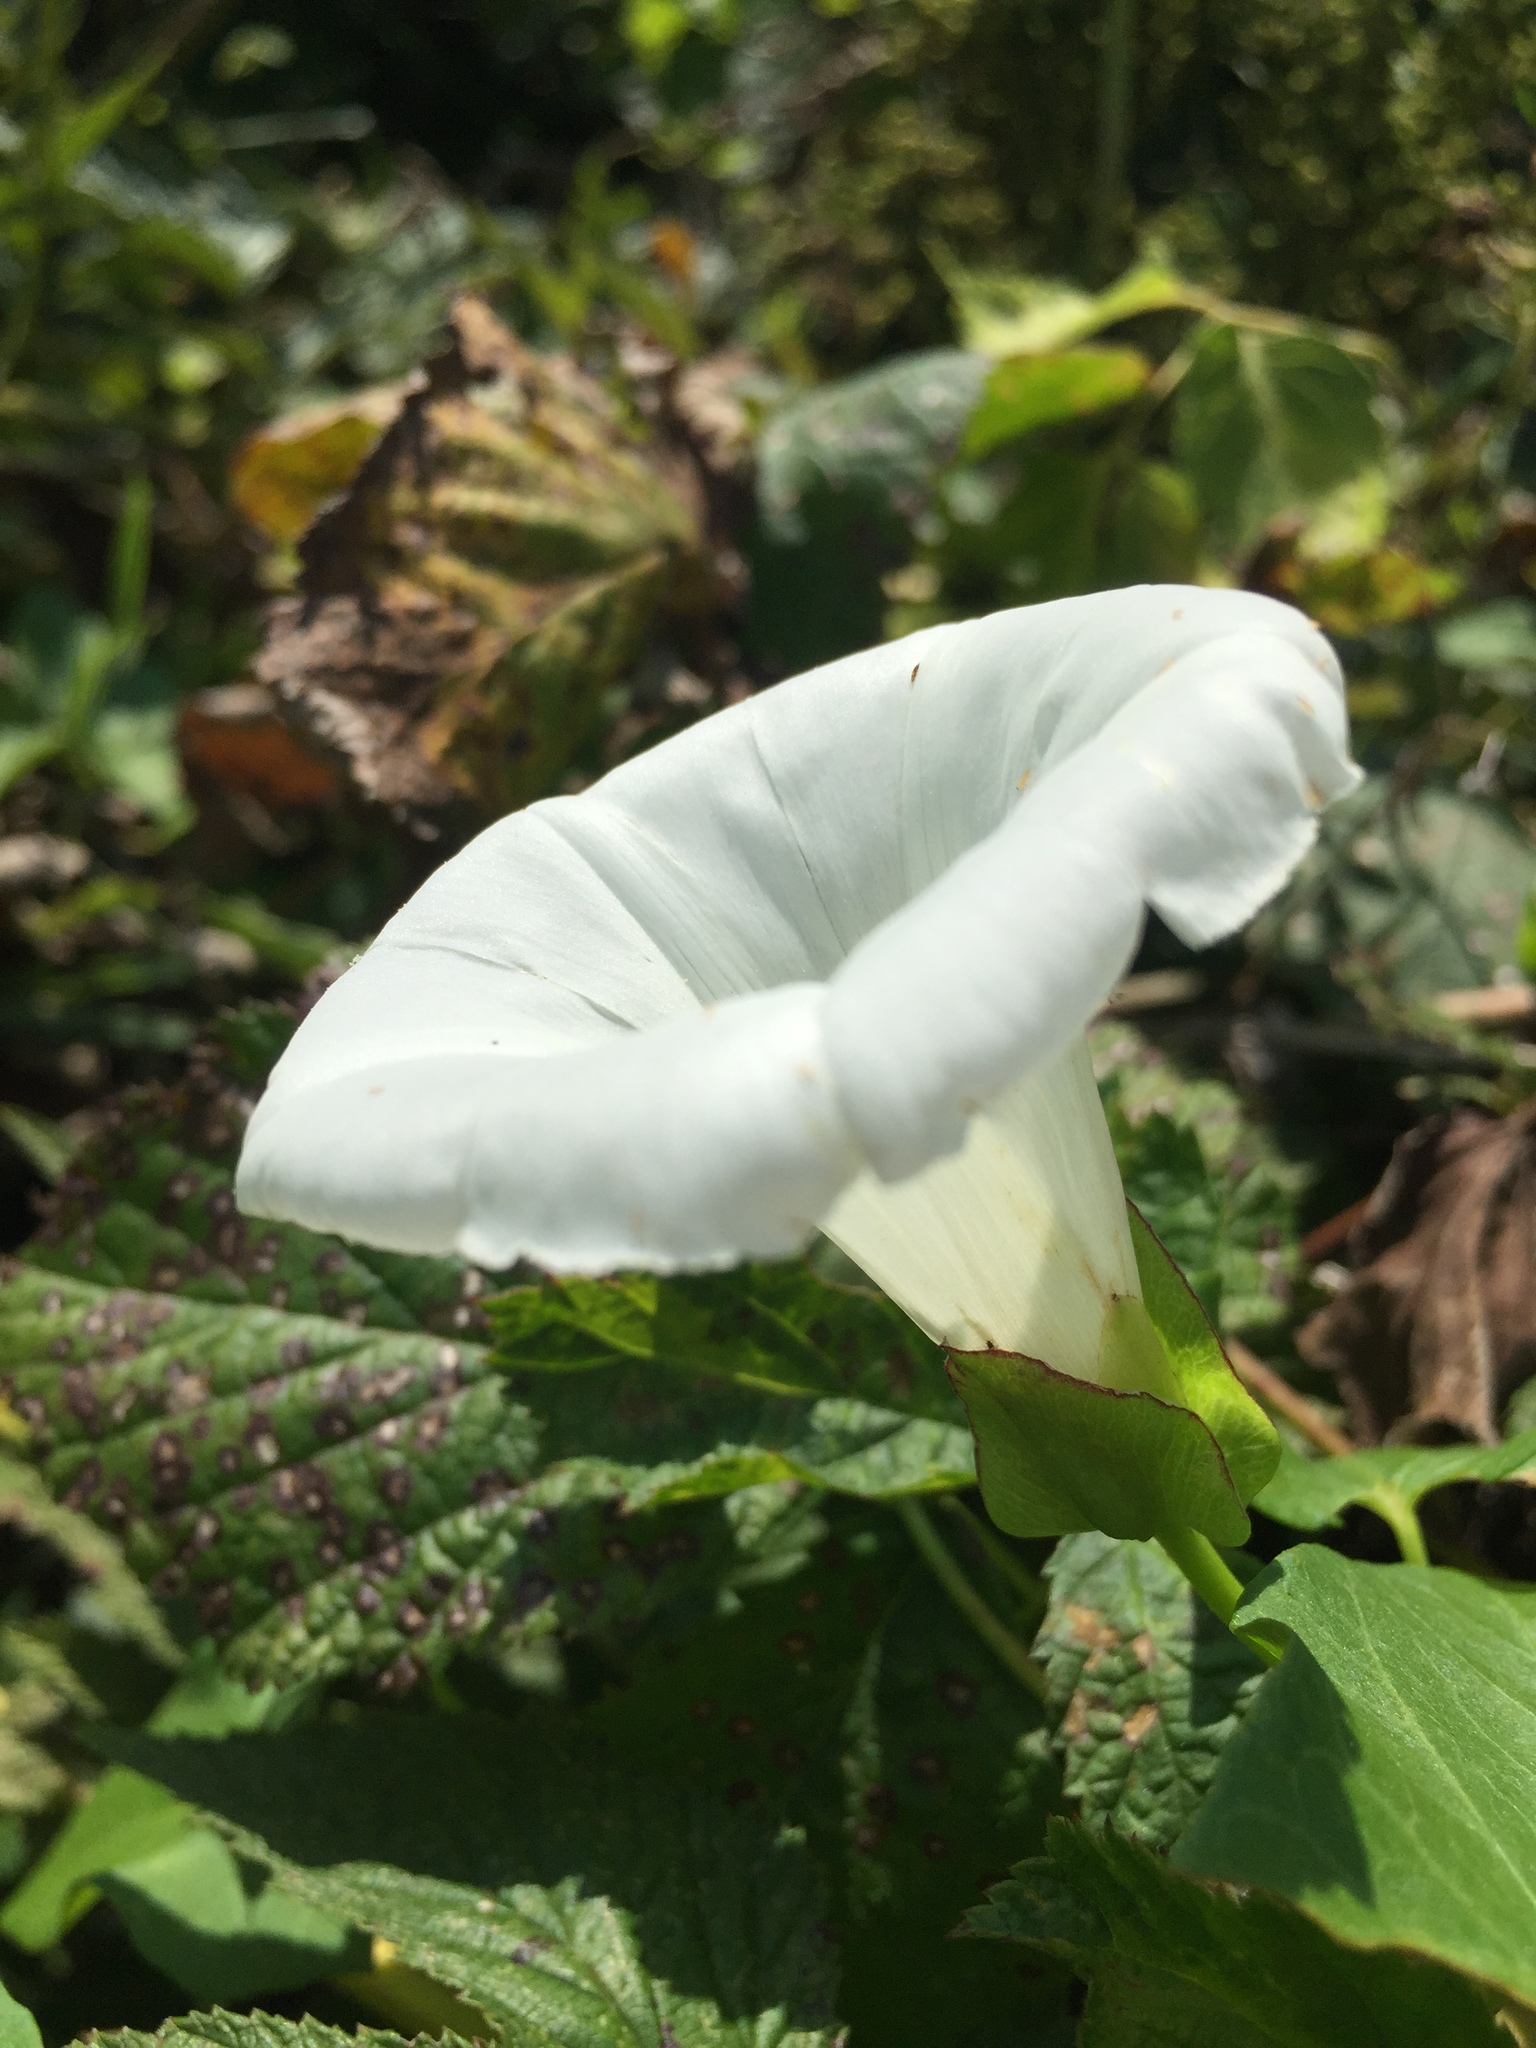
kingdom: Plantae
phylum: Tracheophyta
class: Magnoliopsida
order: Solanales
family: Convolvulaceae
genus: Calystegia
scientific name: Calystegia sepium
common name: Hedge bindweed
